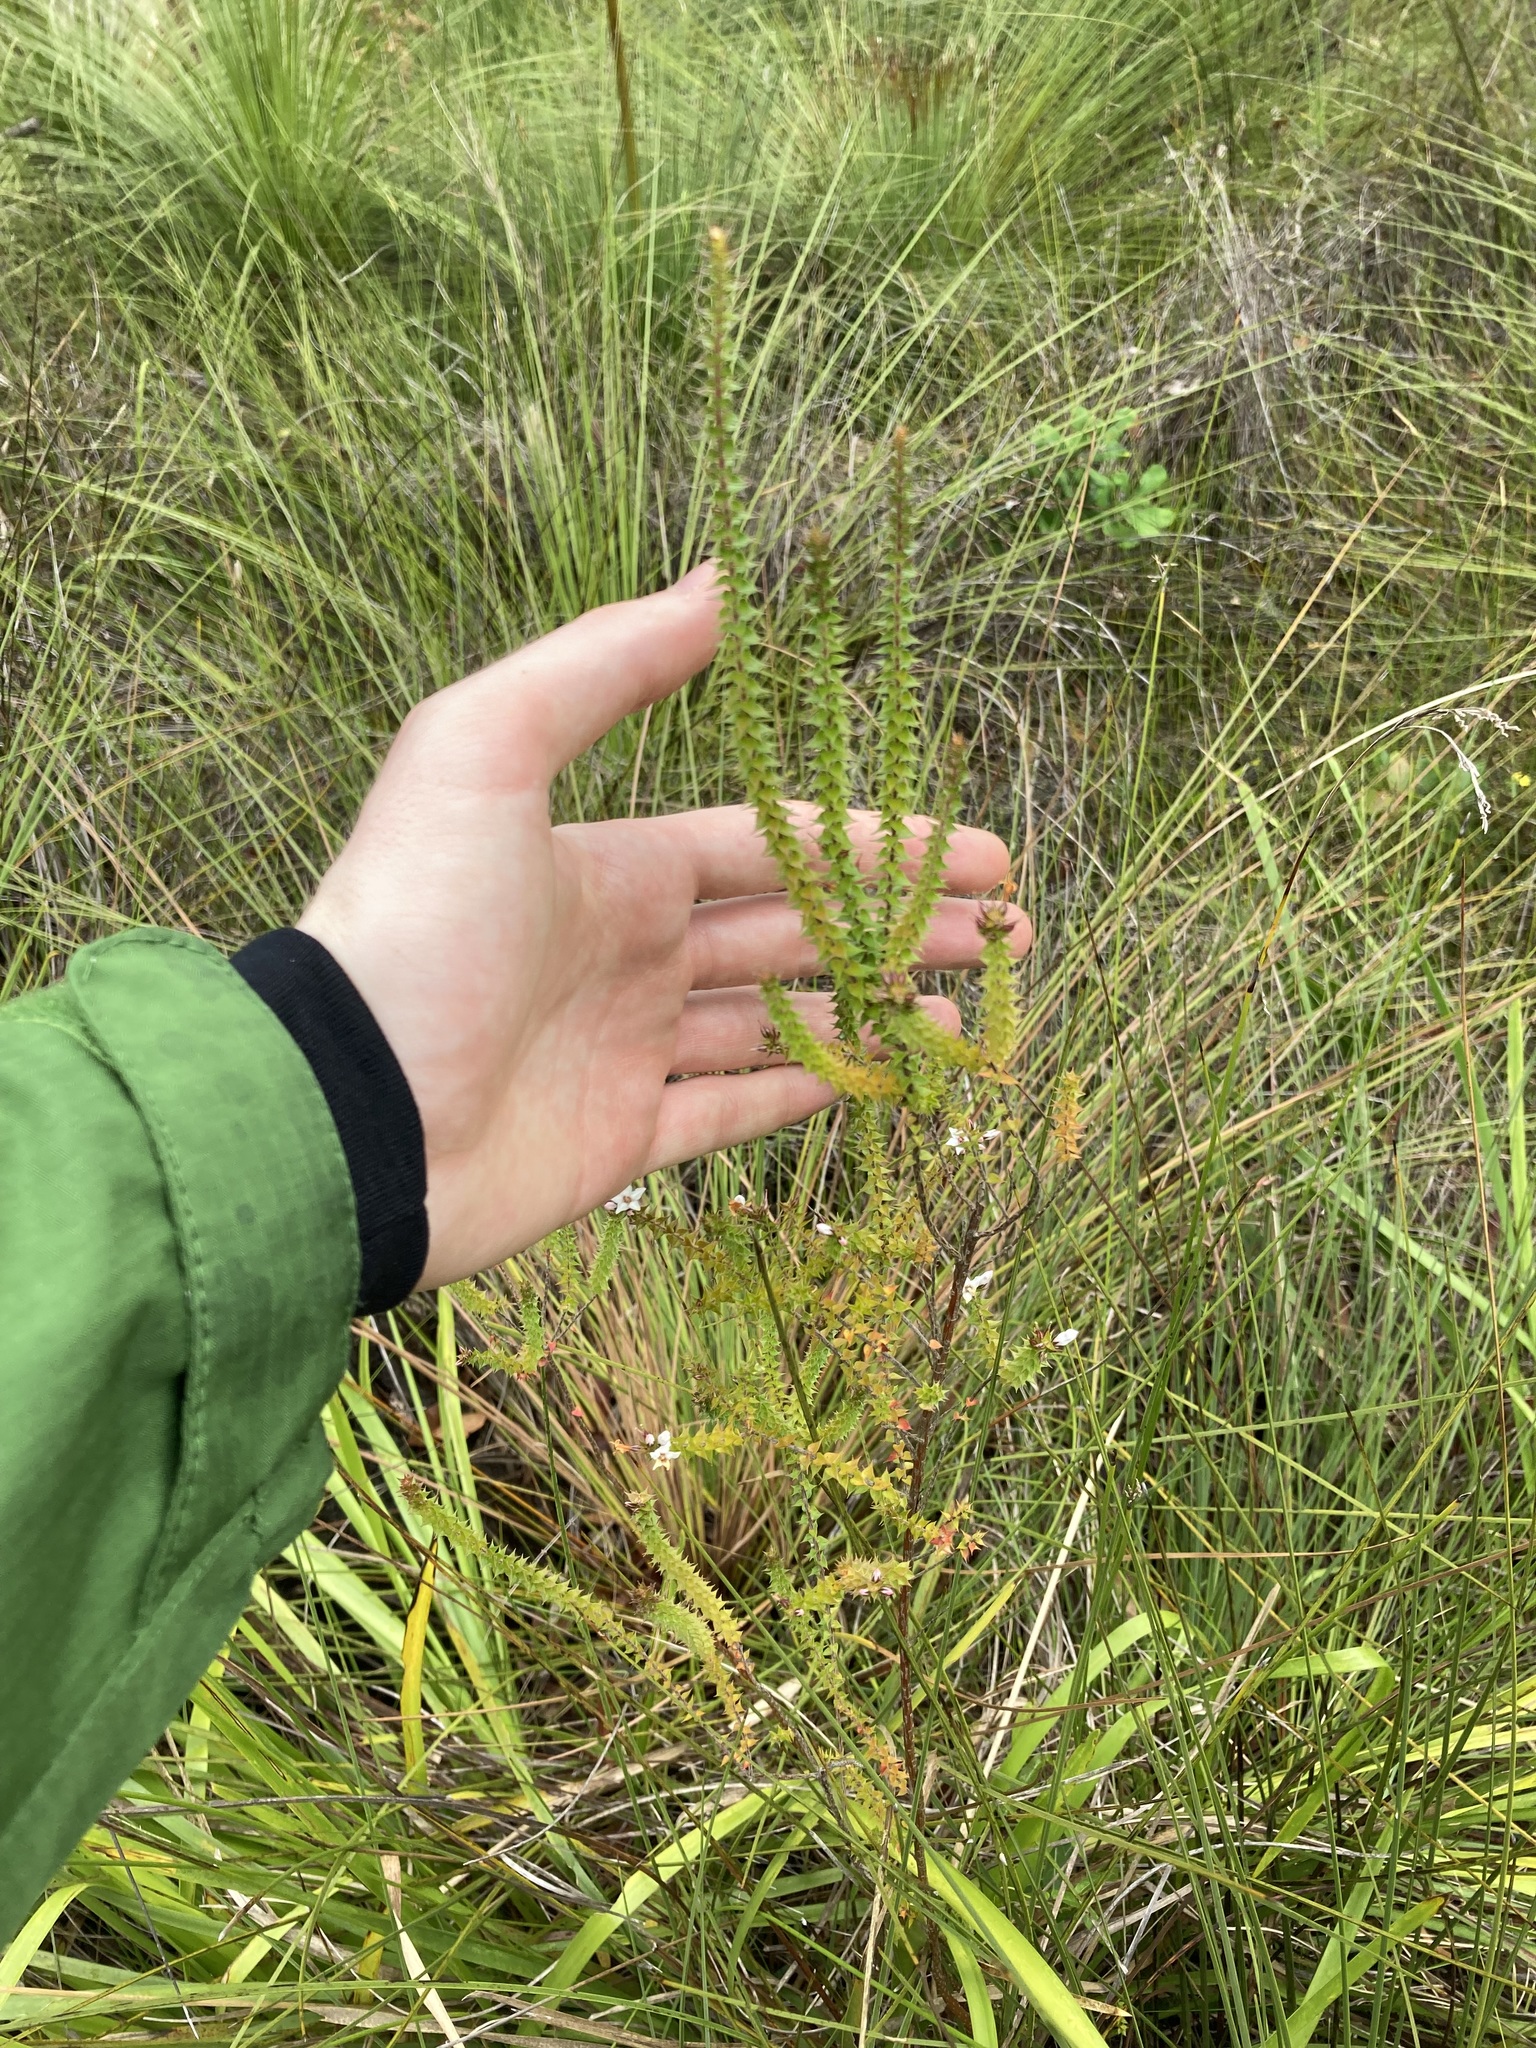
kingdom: Plantae
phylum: Tracheophyta
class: Magnoliopsida
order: Ericales
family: Ericaceae
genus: Epacris
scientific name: Epacris pulchella
